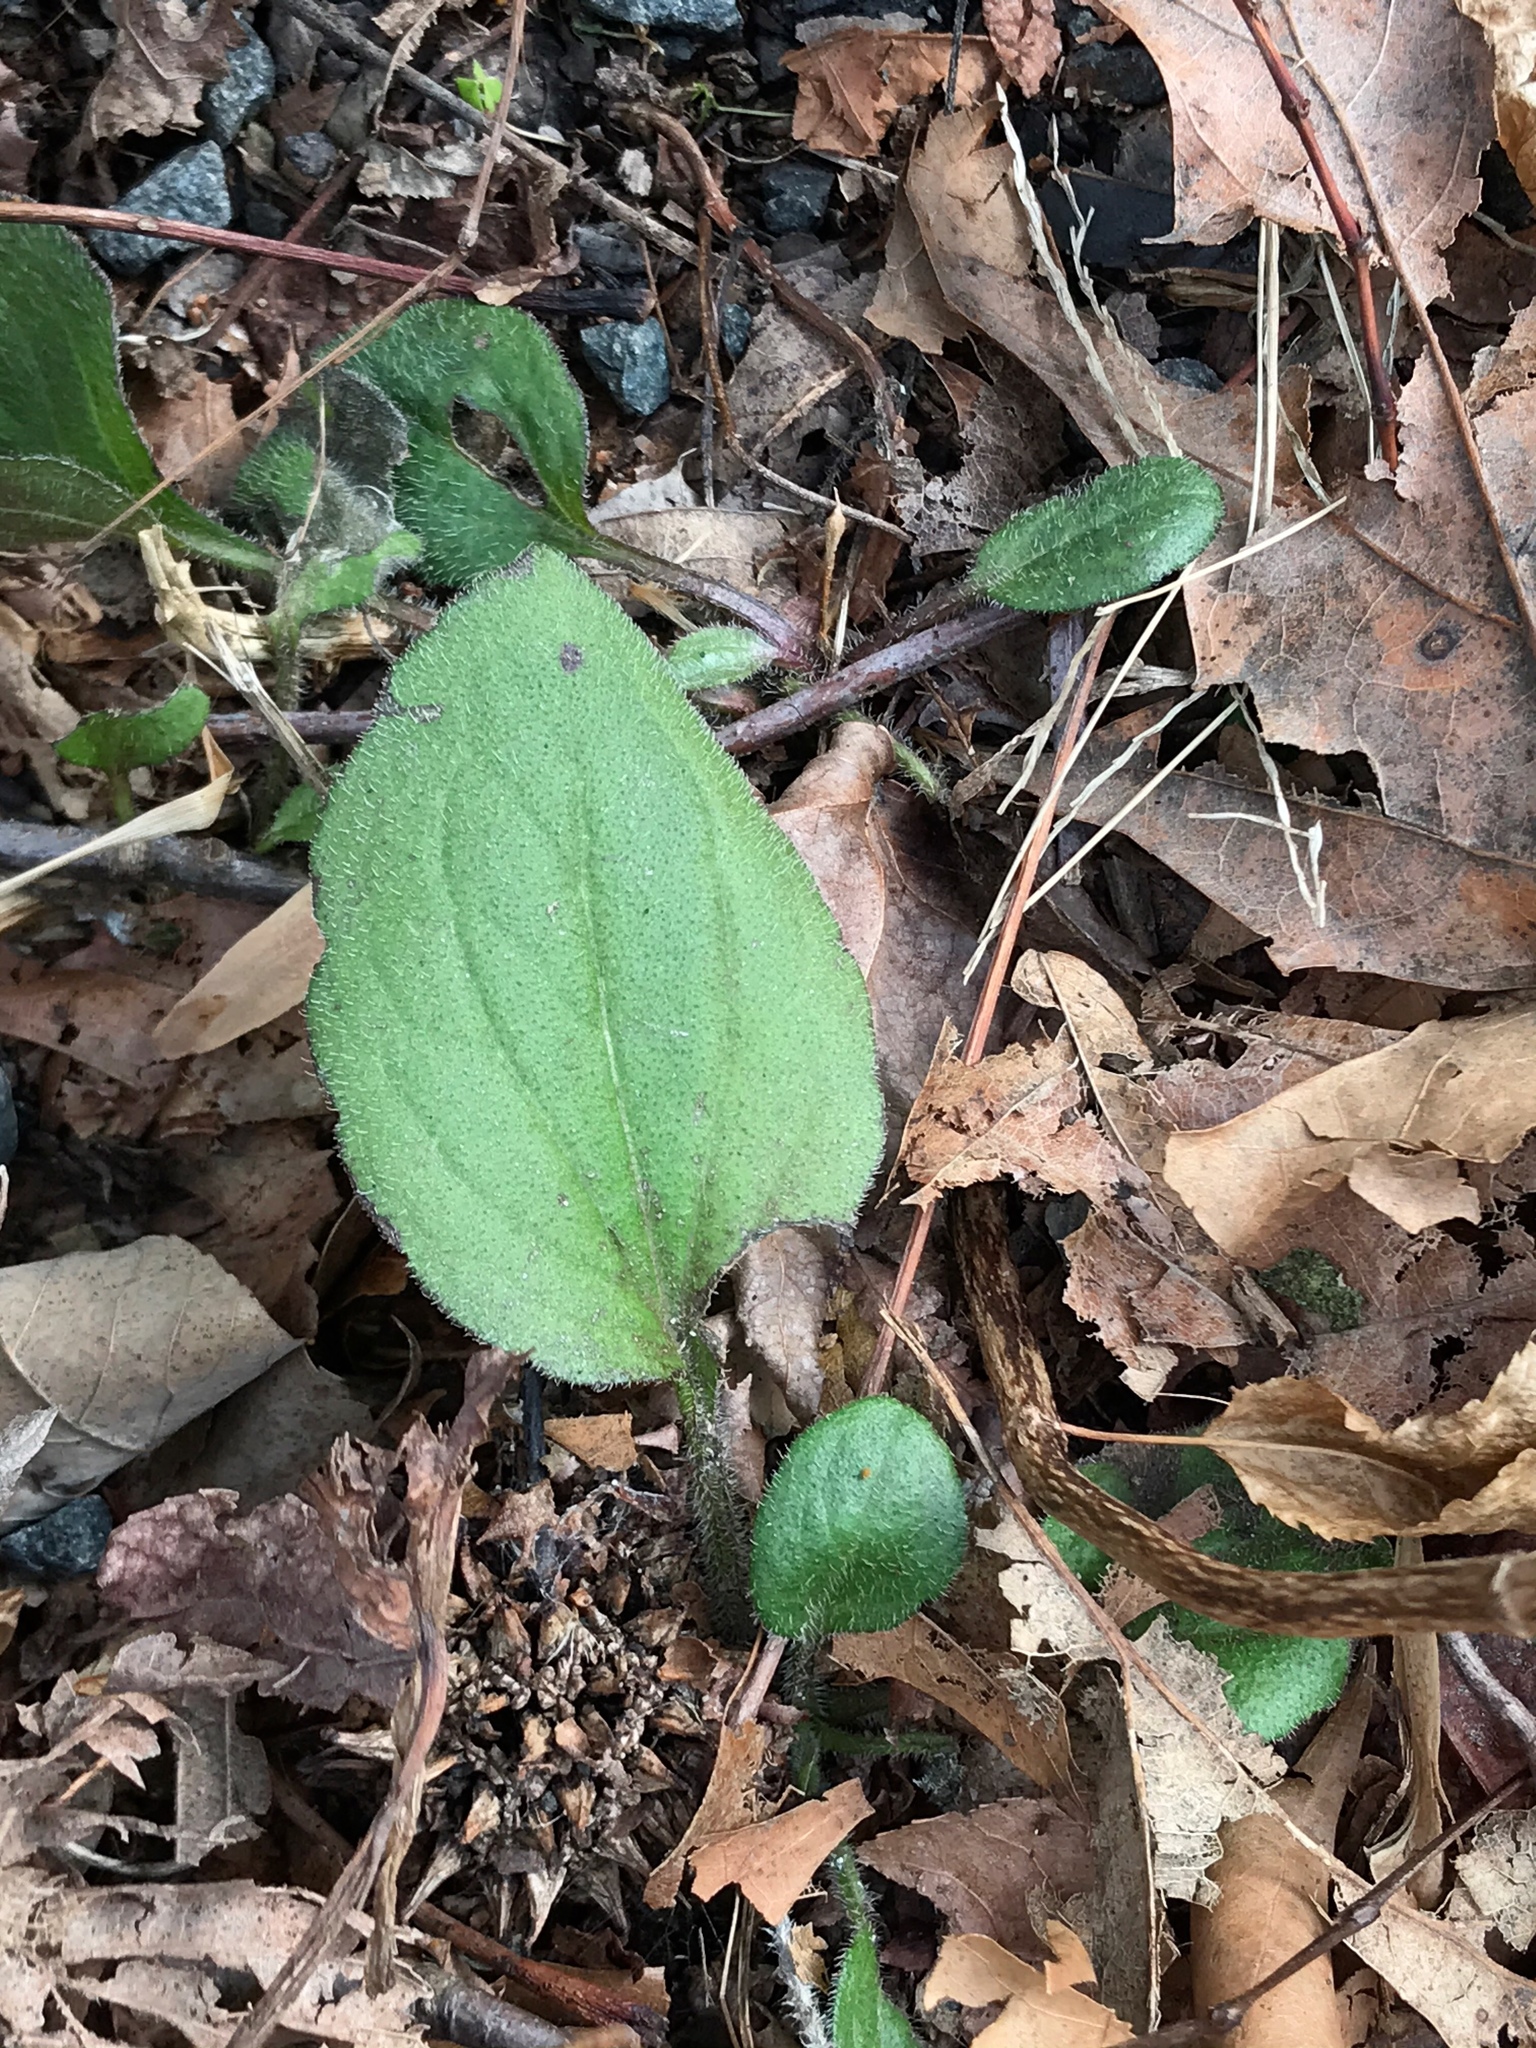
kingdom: Plantae
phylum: Tracheophyta
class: Magnoliopsida
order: Asterales
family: Asteraceae
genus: Rudbeckia
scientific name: Rudbeckia hirta
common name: Black-eyed-susan
